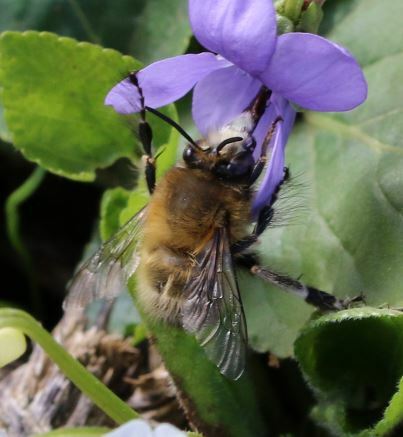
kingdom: Animalia
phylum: Arthropoda
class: Insecta
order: Hymenoptera
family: Apidae
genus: Anthophora
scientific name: Anthophora plumipes
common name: Hairy-footed flower bee
